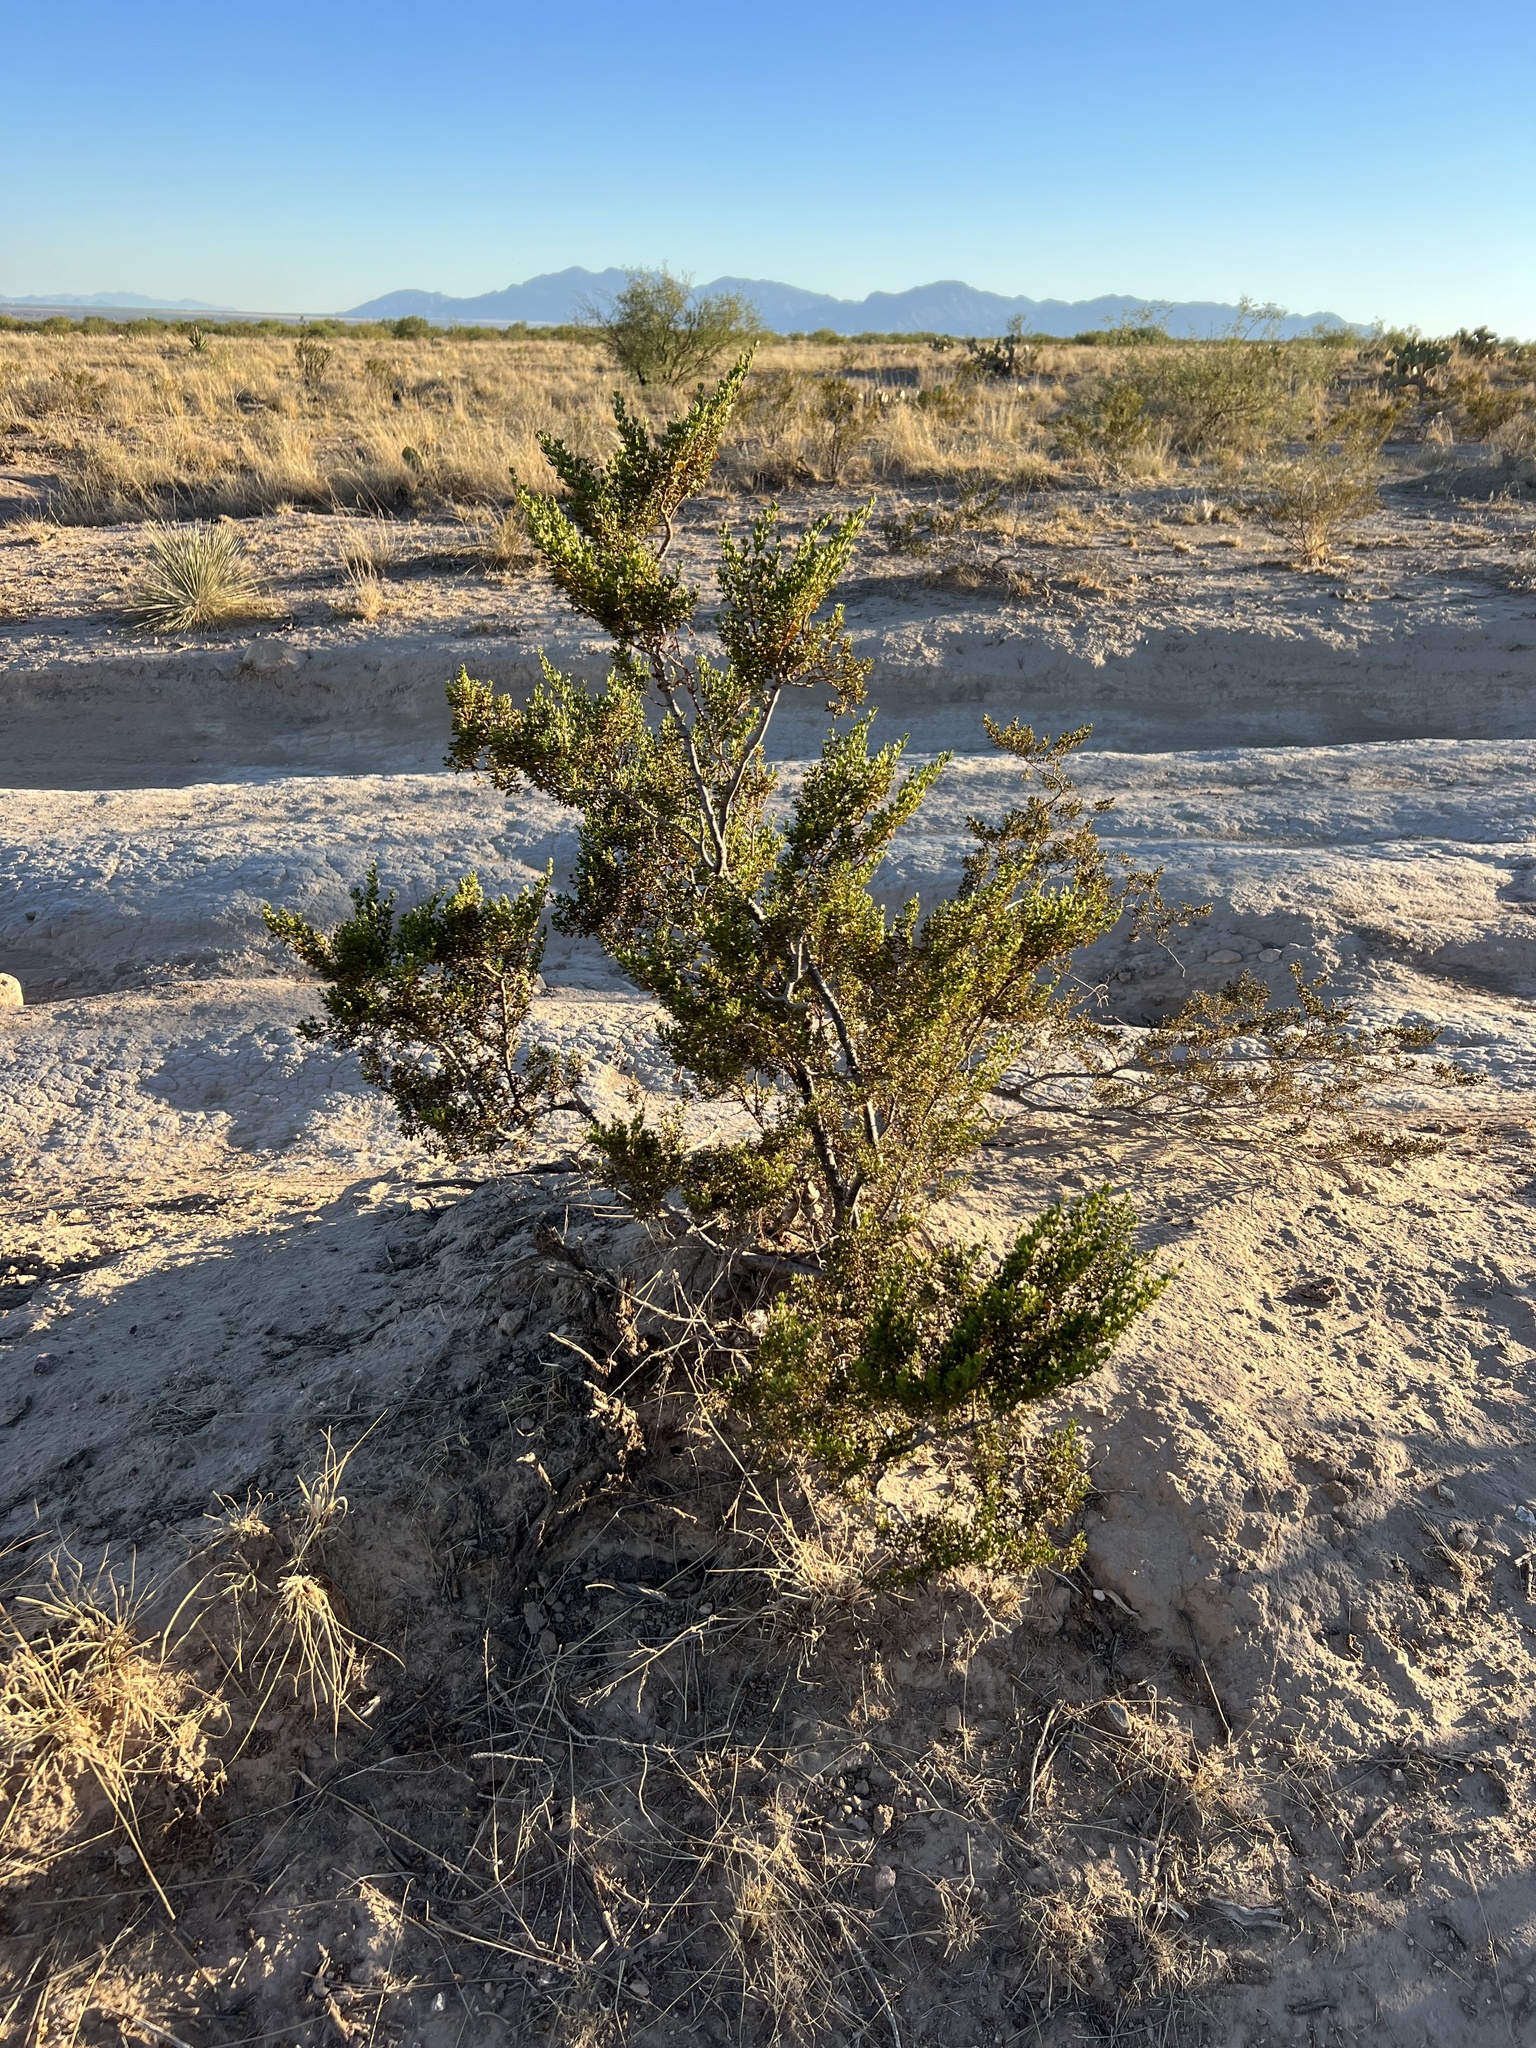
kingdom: Plantae
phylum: Tracheophyta
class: Magnoliopsida
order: Zygophyllales
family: Zygophyllaceae
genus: Larrea
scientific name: Larrea tridentata
